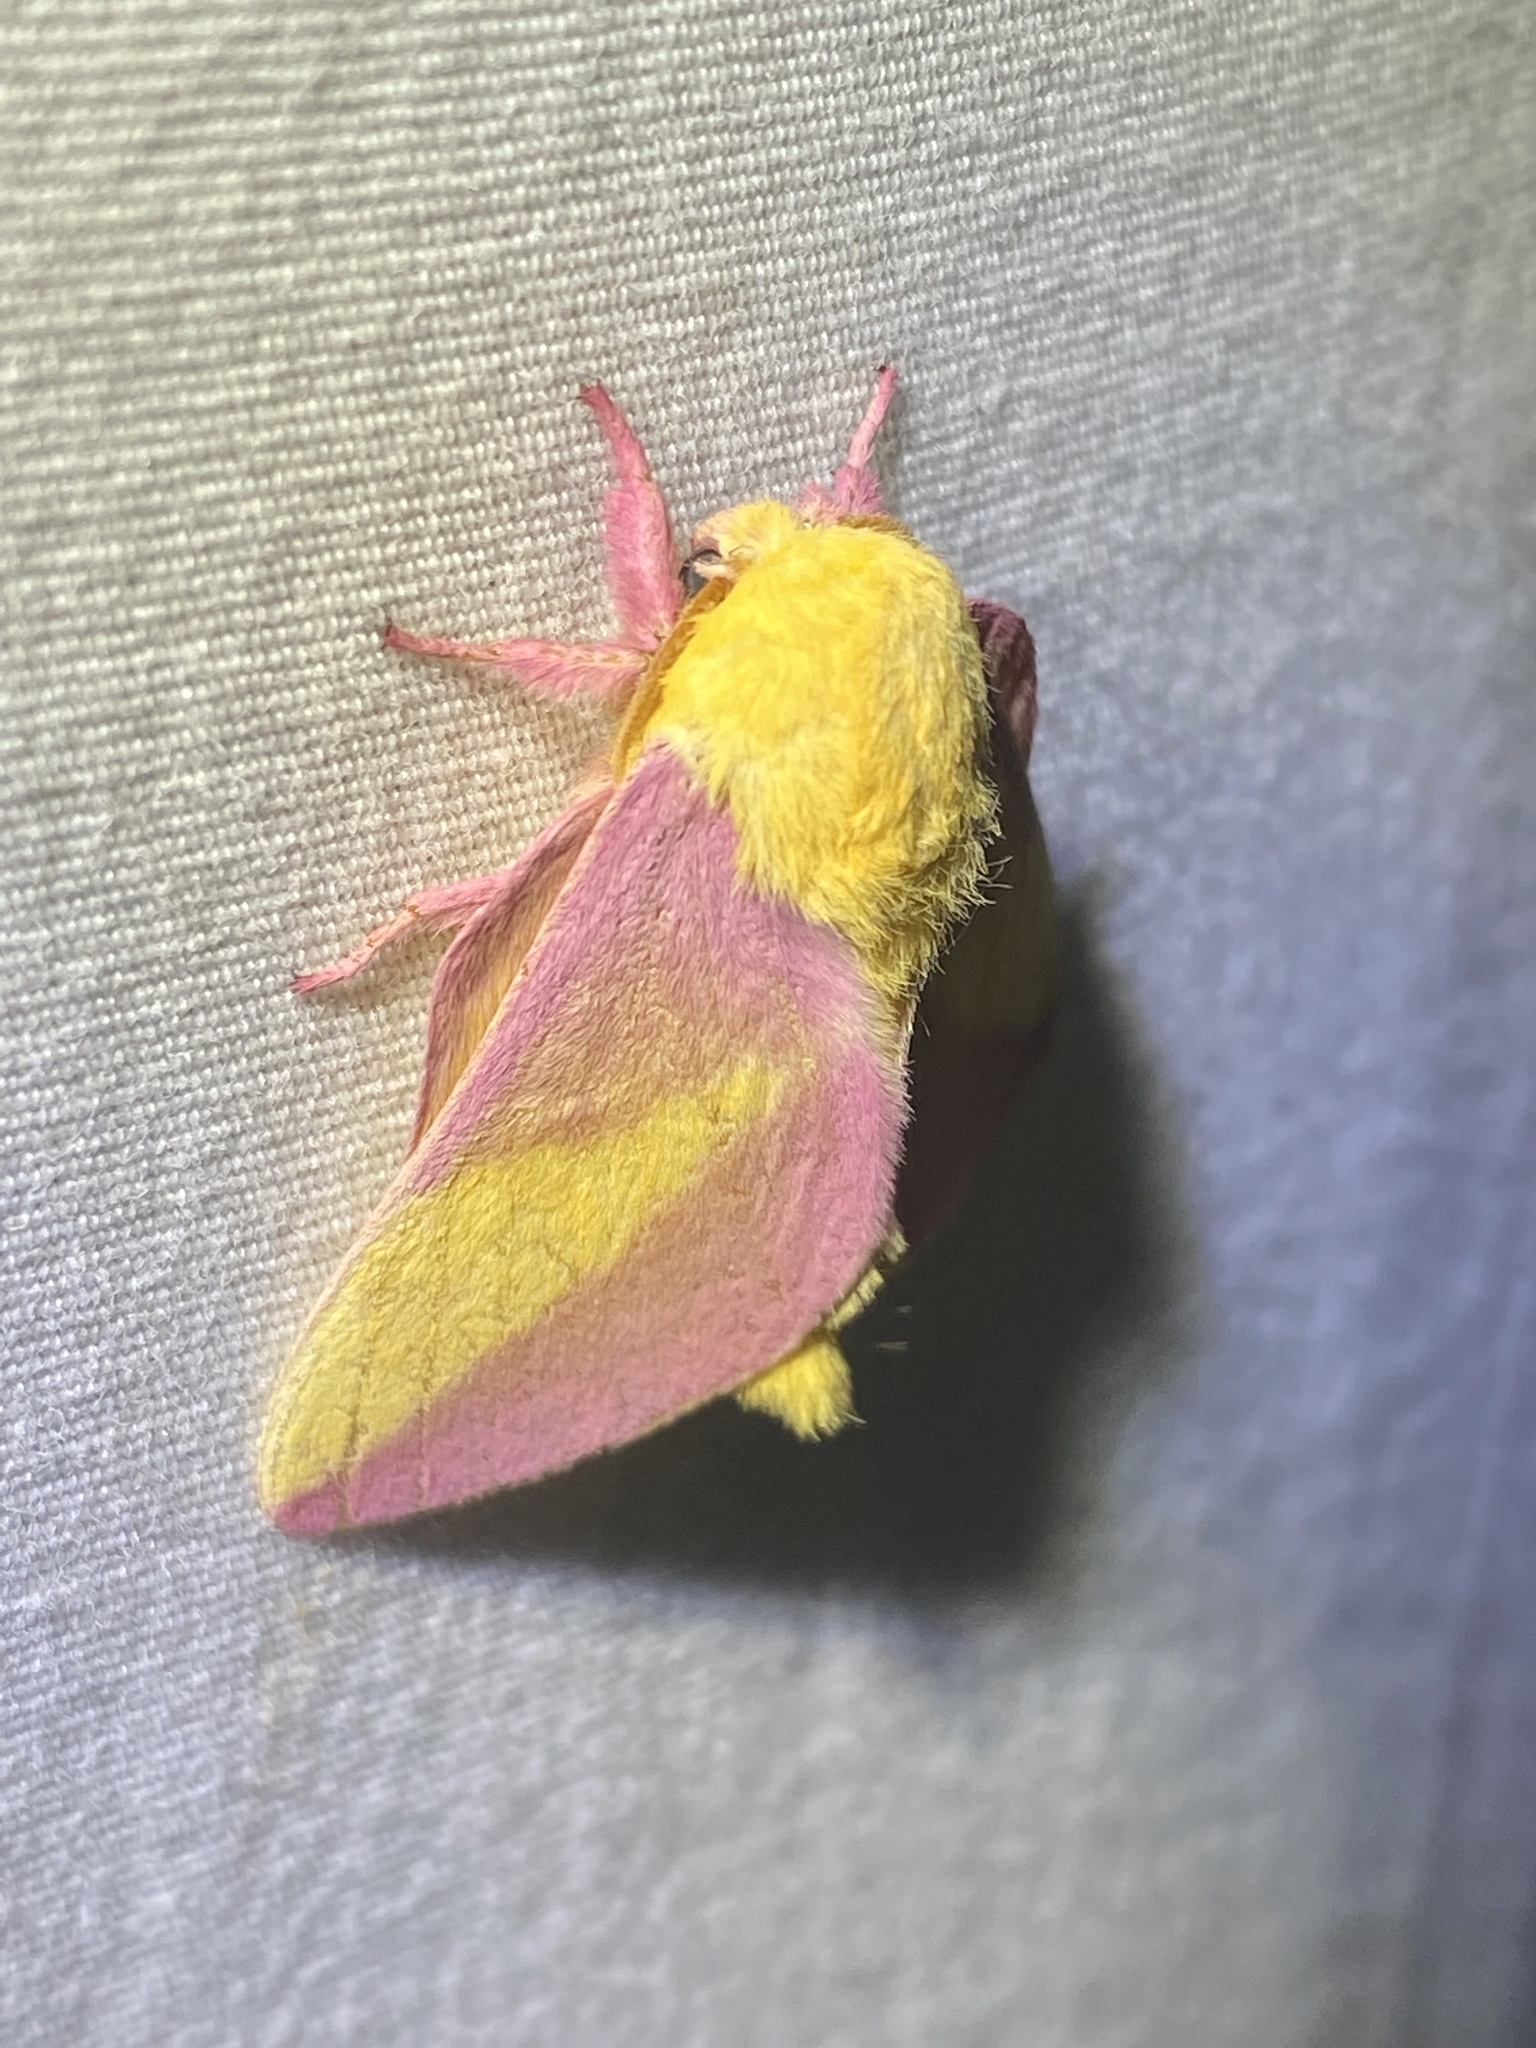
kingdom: Animalia
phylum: Arthropoda
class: Insecta
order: Lepidoptera
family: Saturniidae
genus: Dryocampa
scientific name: Dryocampa rubicunda
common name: Rosy maple moth
